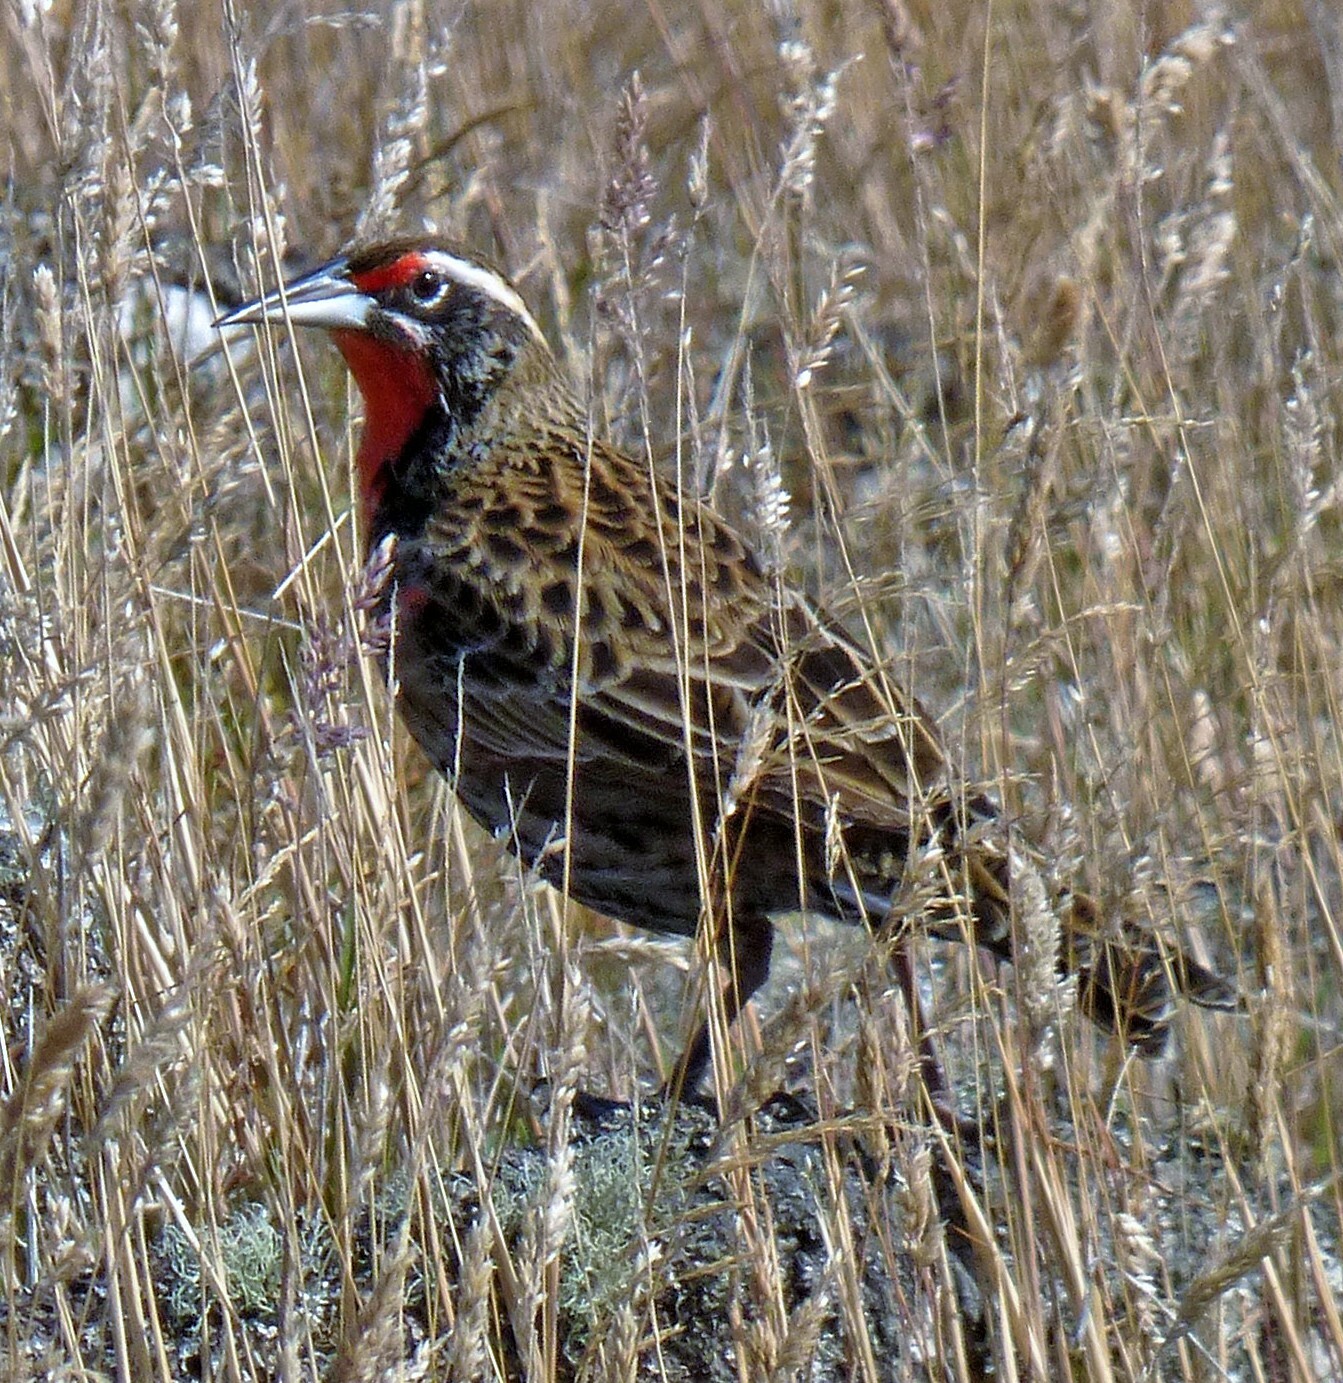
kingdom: Animalia
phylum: Chordata
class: Aves
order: Passeriformes
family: Icteridae
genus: Sturnella
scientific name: Sturnella loyca
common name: Long-tailed meadowlark
